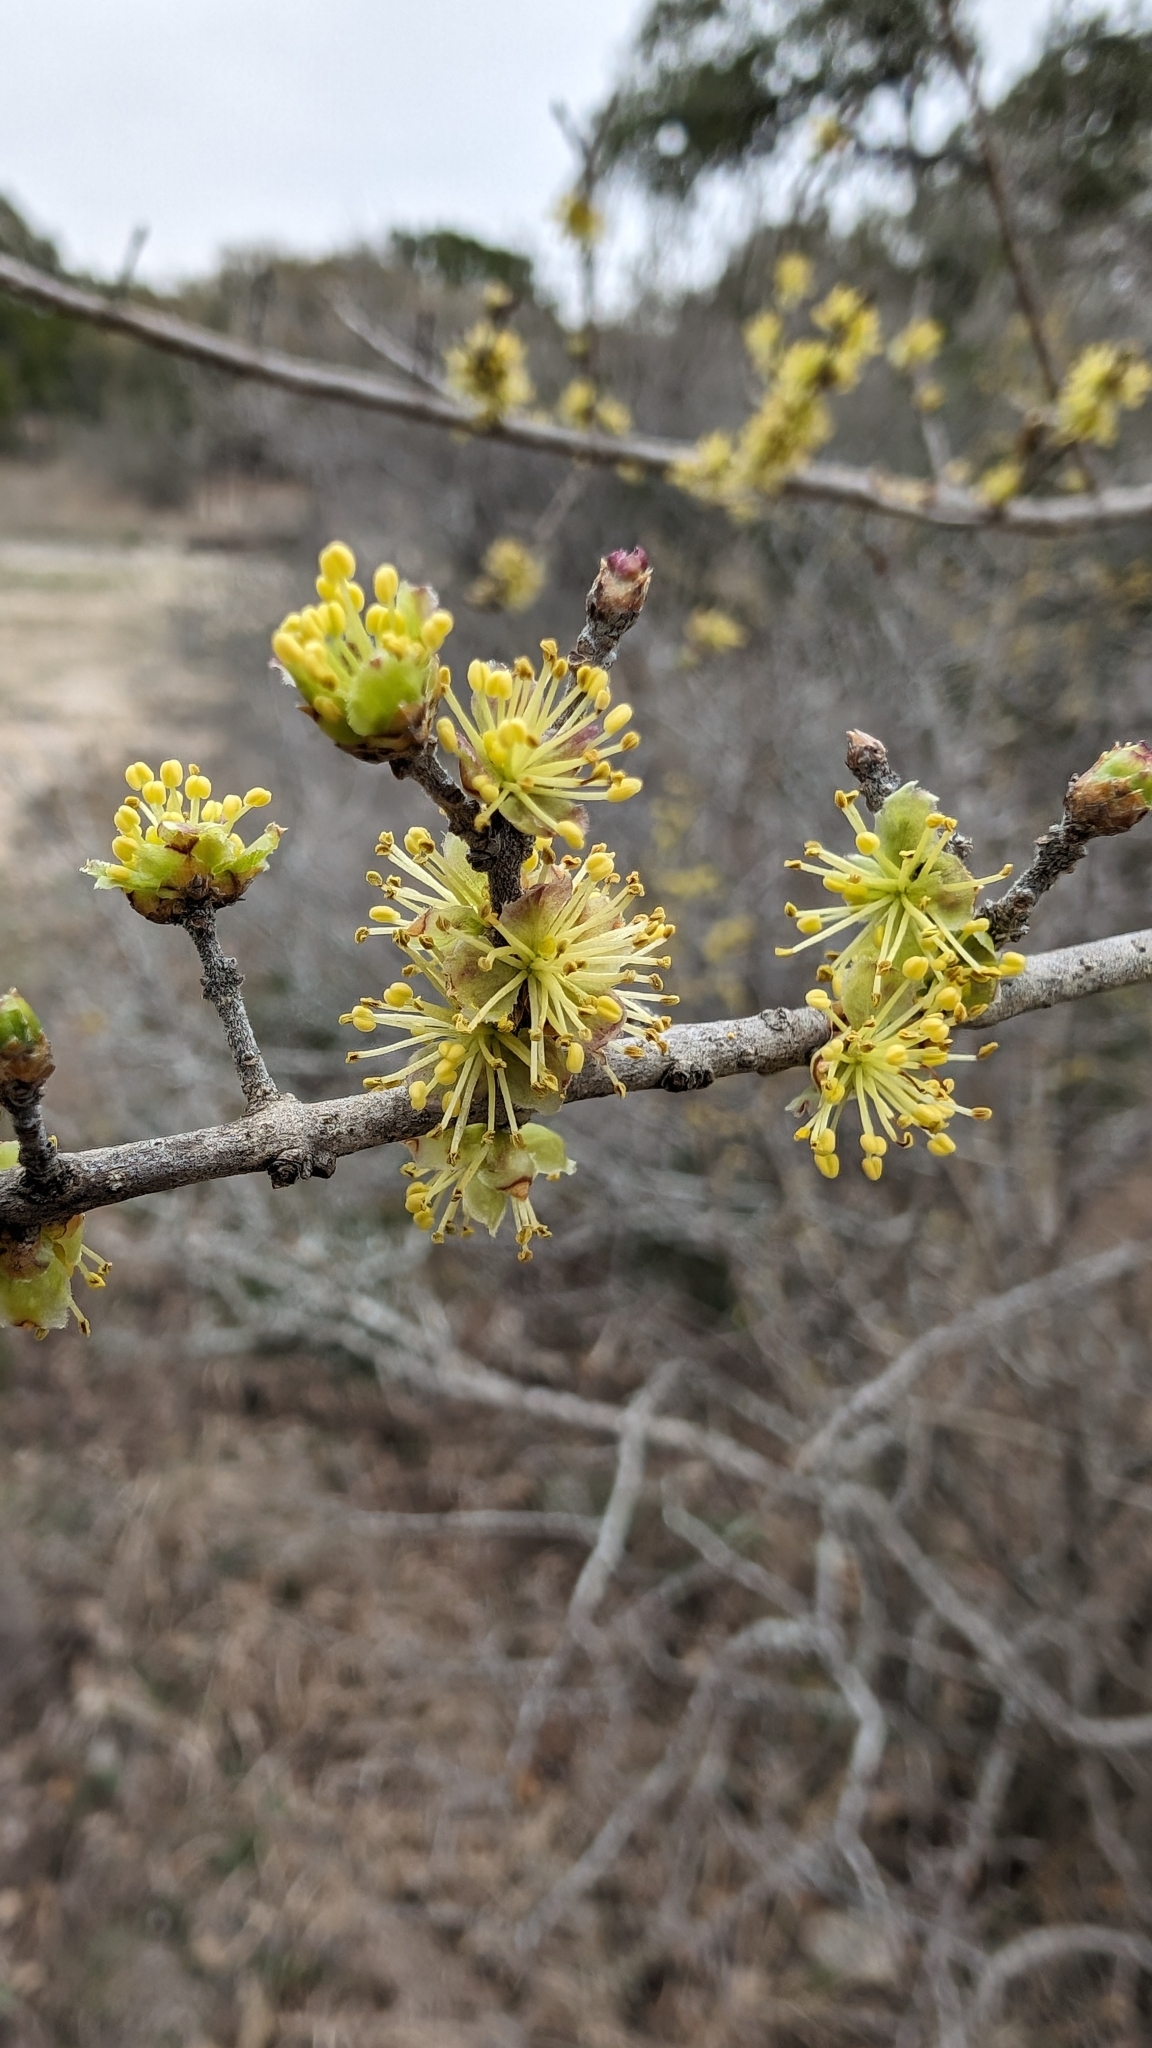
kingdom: Plantae
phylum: Tracheophyta
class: Magnoliopsida
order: Lamiales
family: Oleaceae
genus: Forestiera
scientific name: Forestiera pubescens
